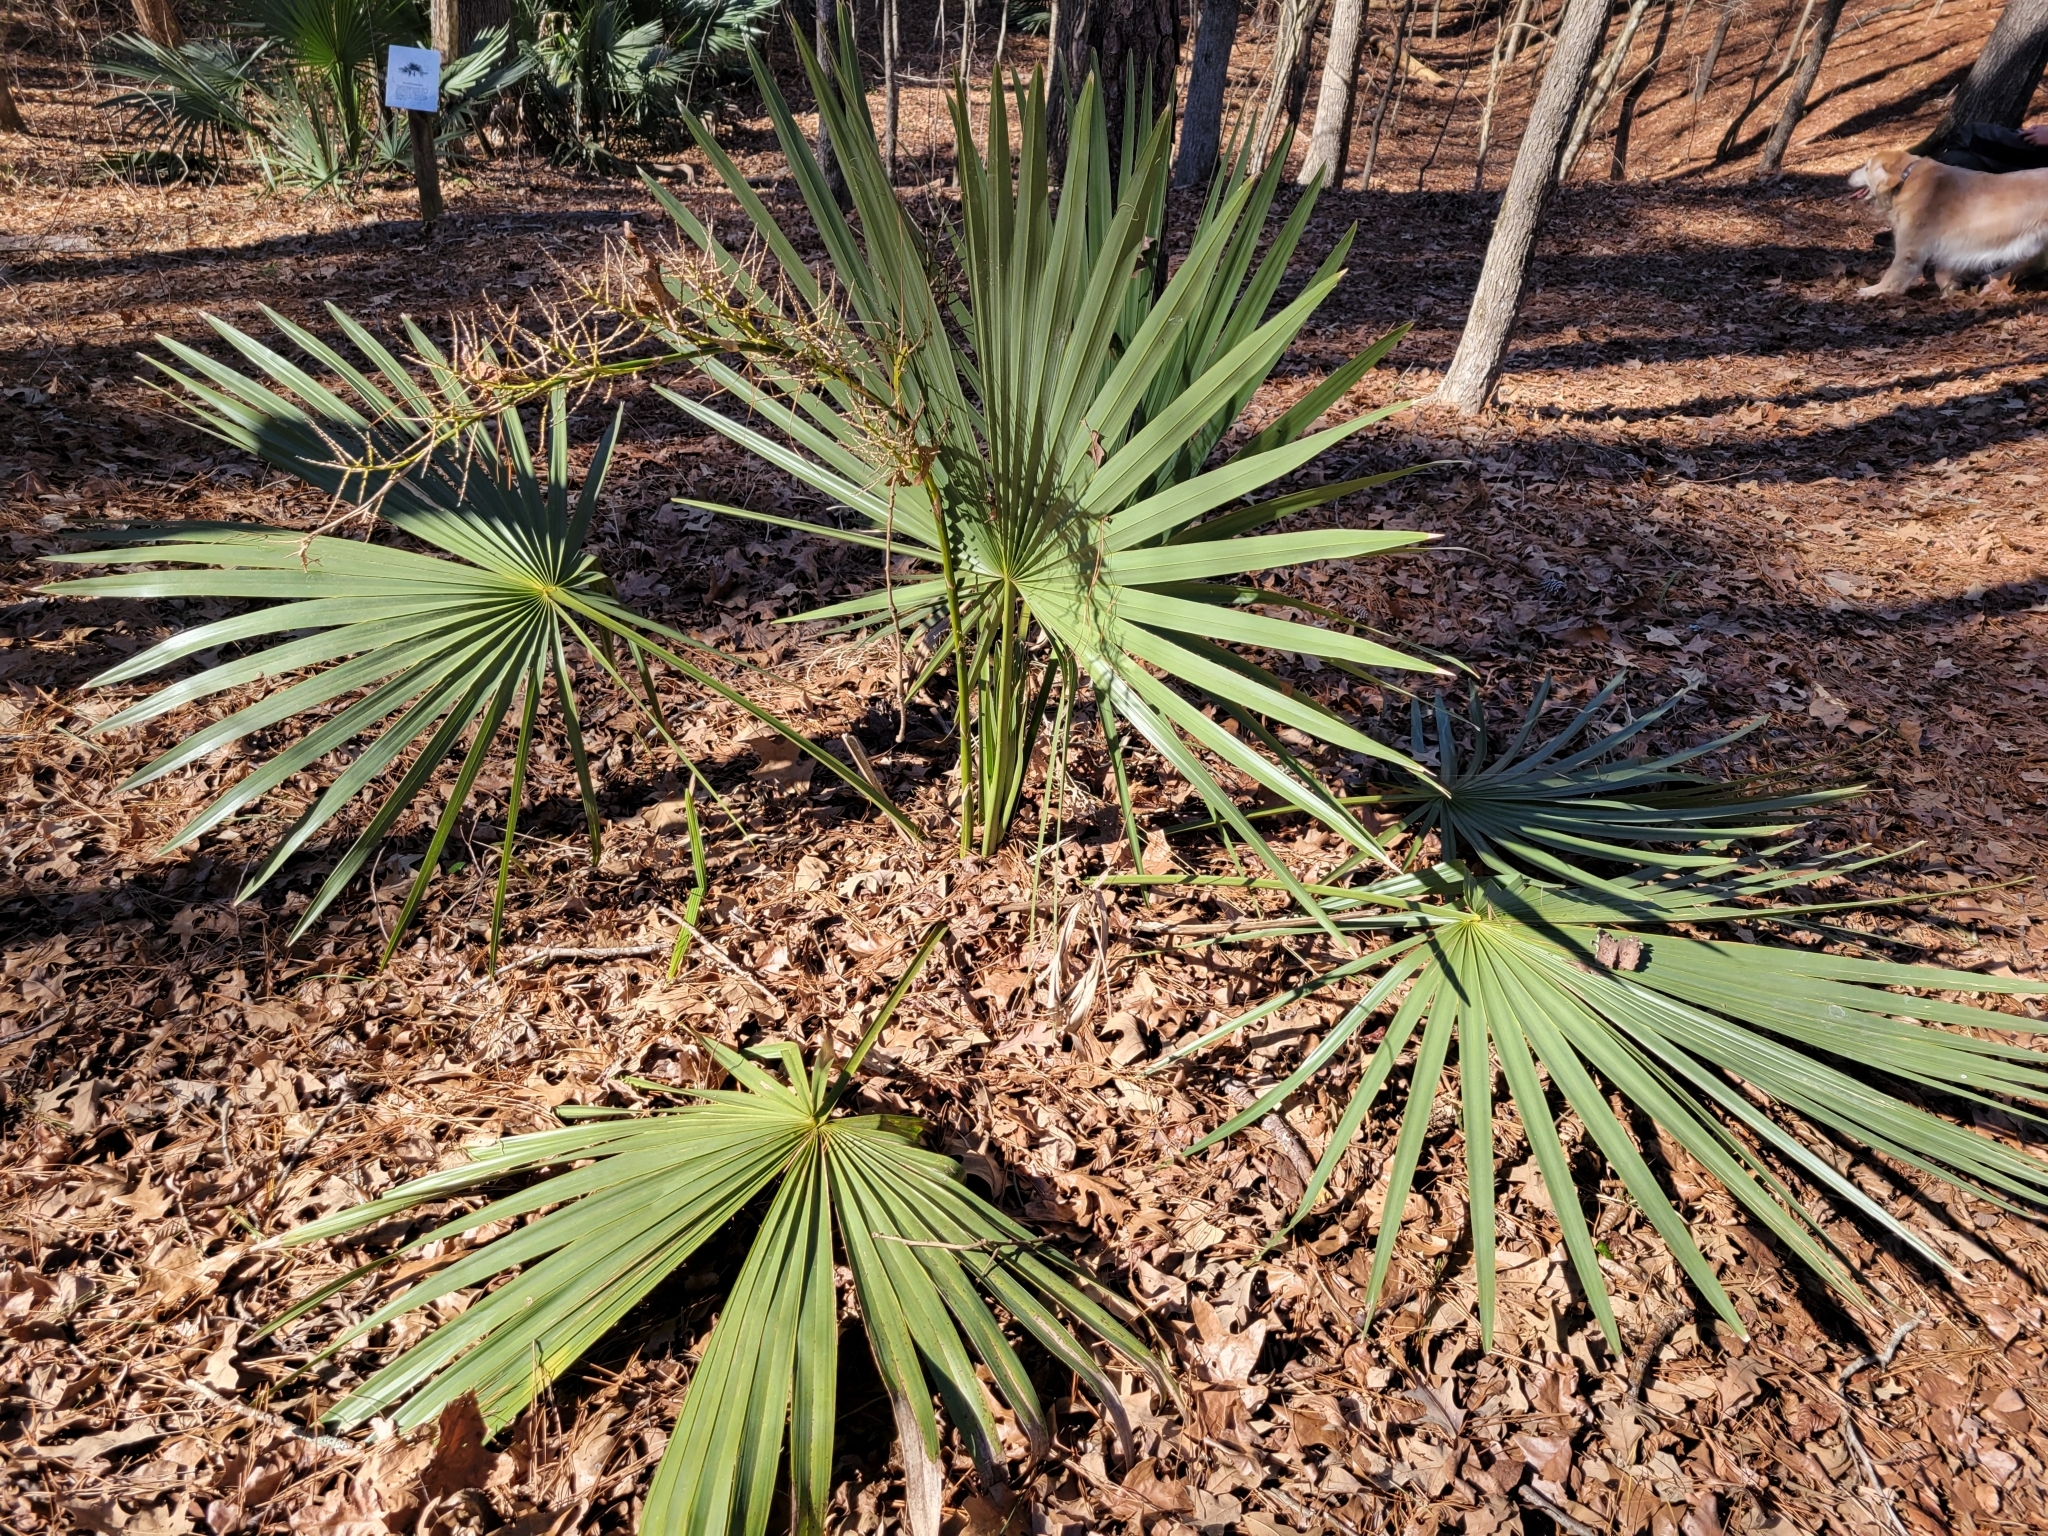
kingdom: Plantae
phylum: Tracheophyta
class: Liliopsida
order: Arecales
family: Arecaceae
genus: Sabal
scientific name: Sabal minor
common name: Dwarf palmetto
